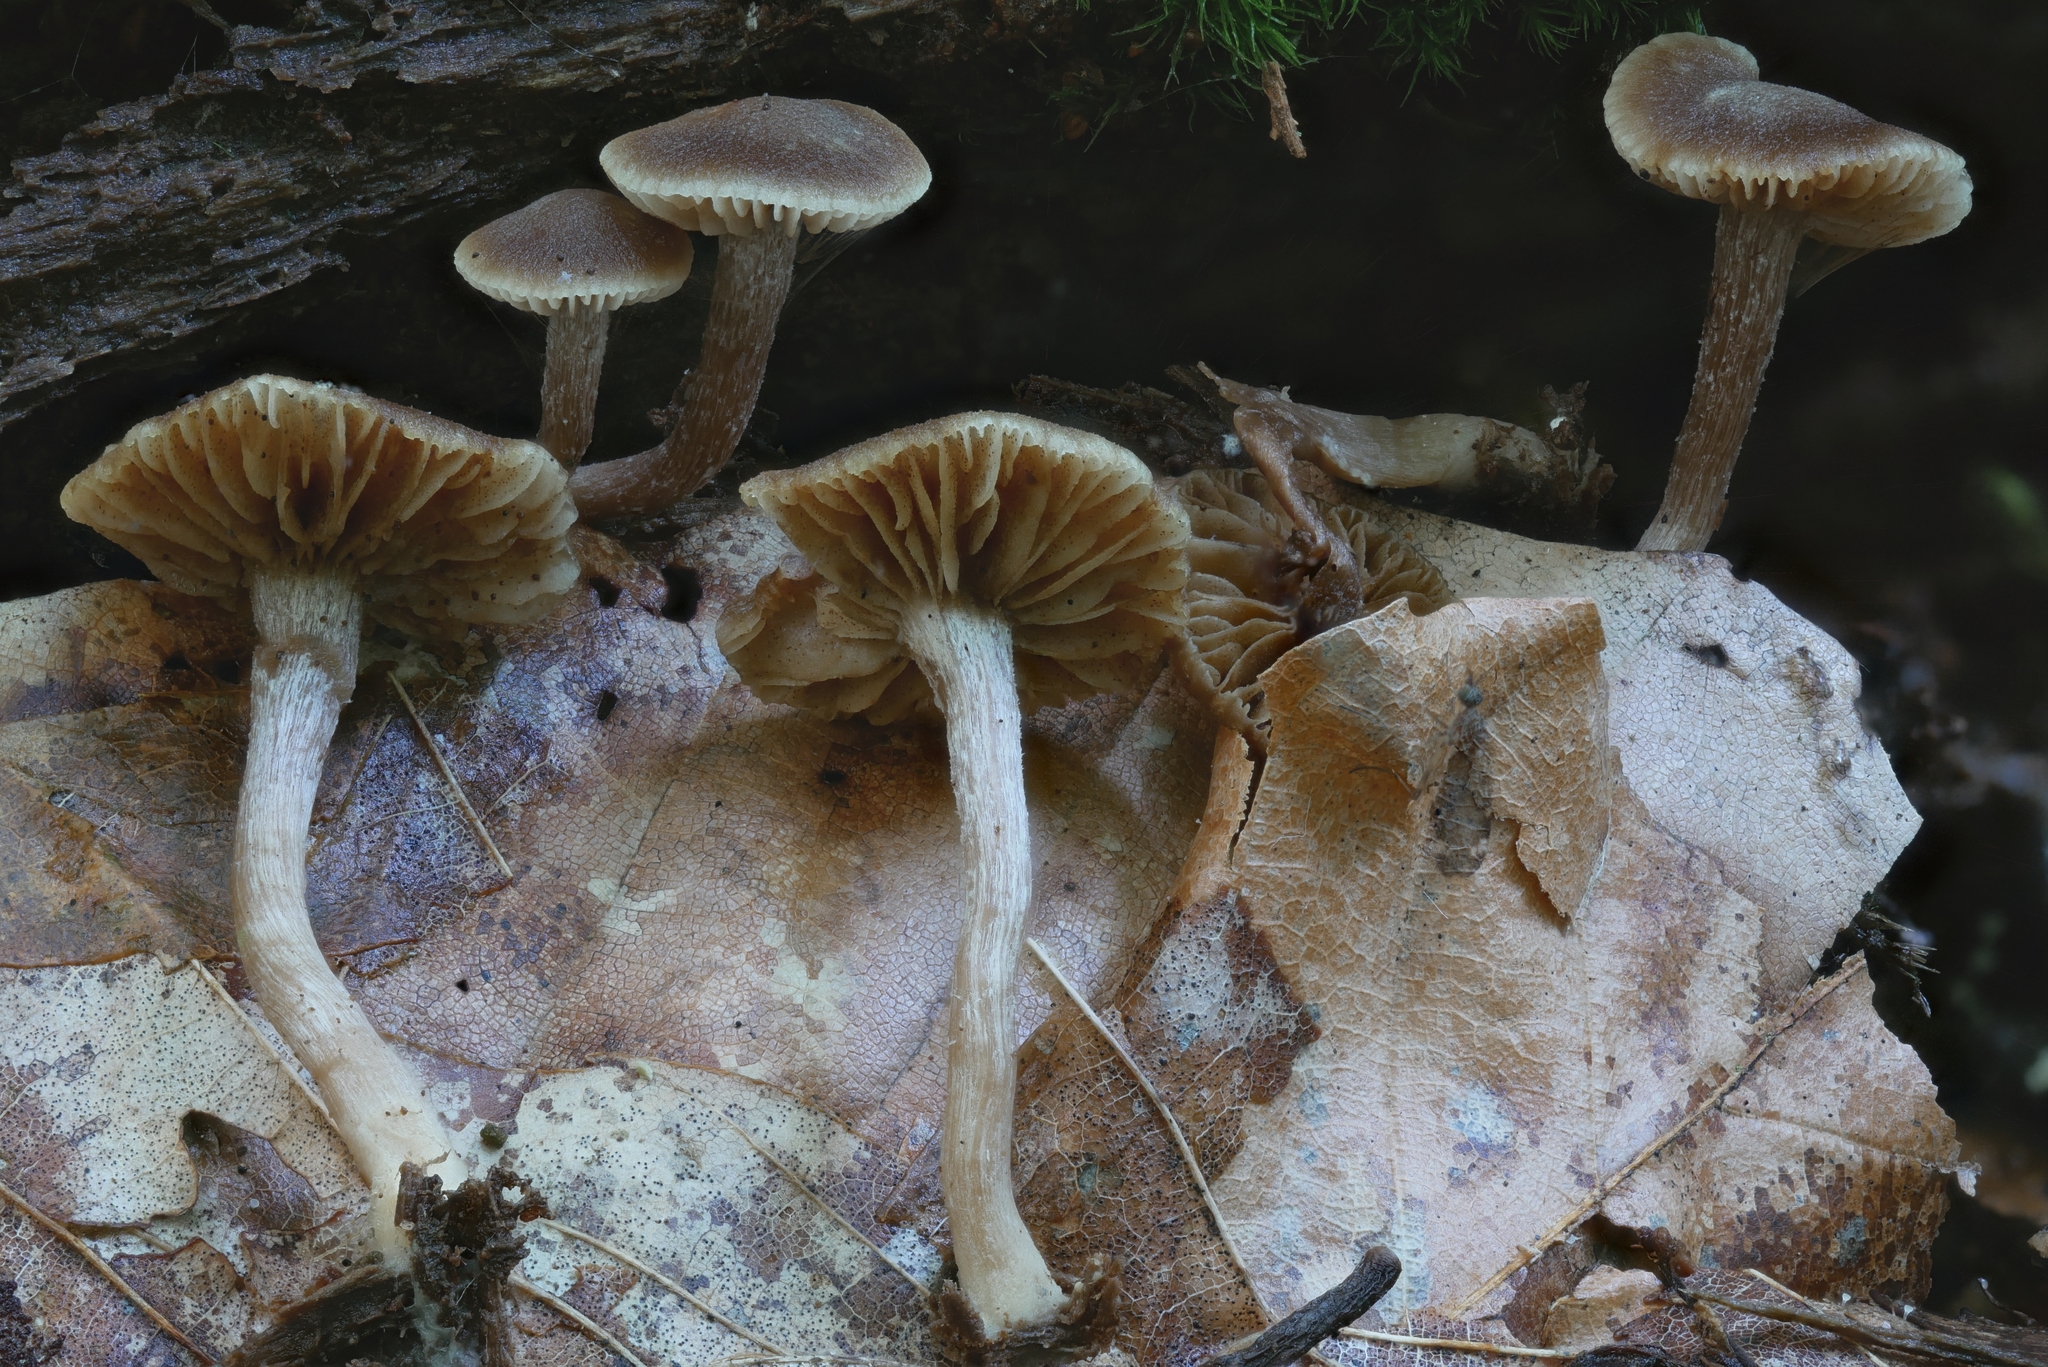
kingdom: Fungi
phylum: Basidiomycota
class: Agaricomycetes
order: Agaricales
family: Inocybaceae
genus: Inocybe
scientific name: Inocybe tubarioides
